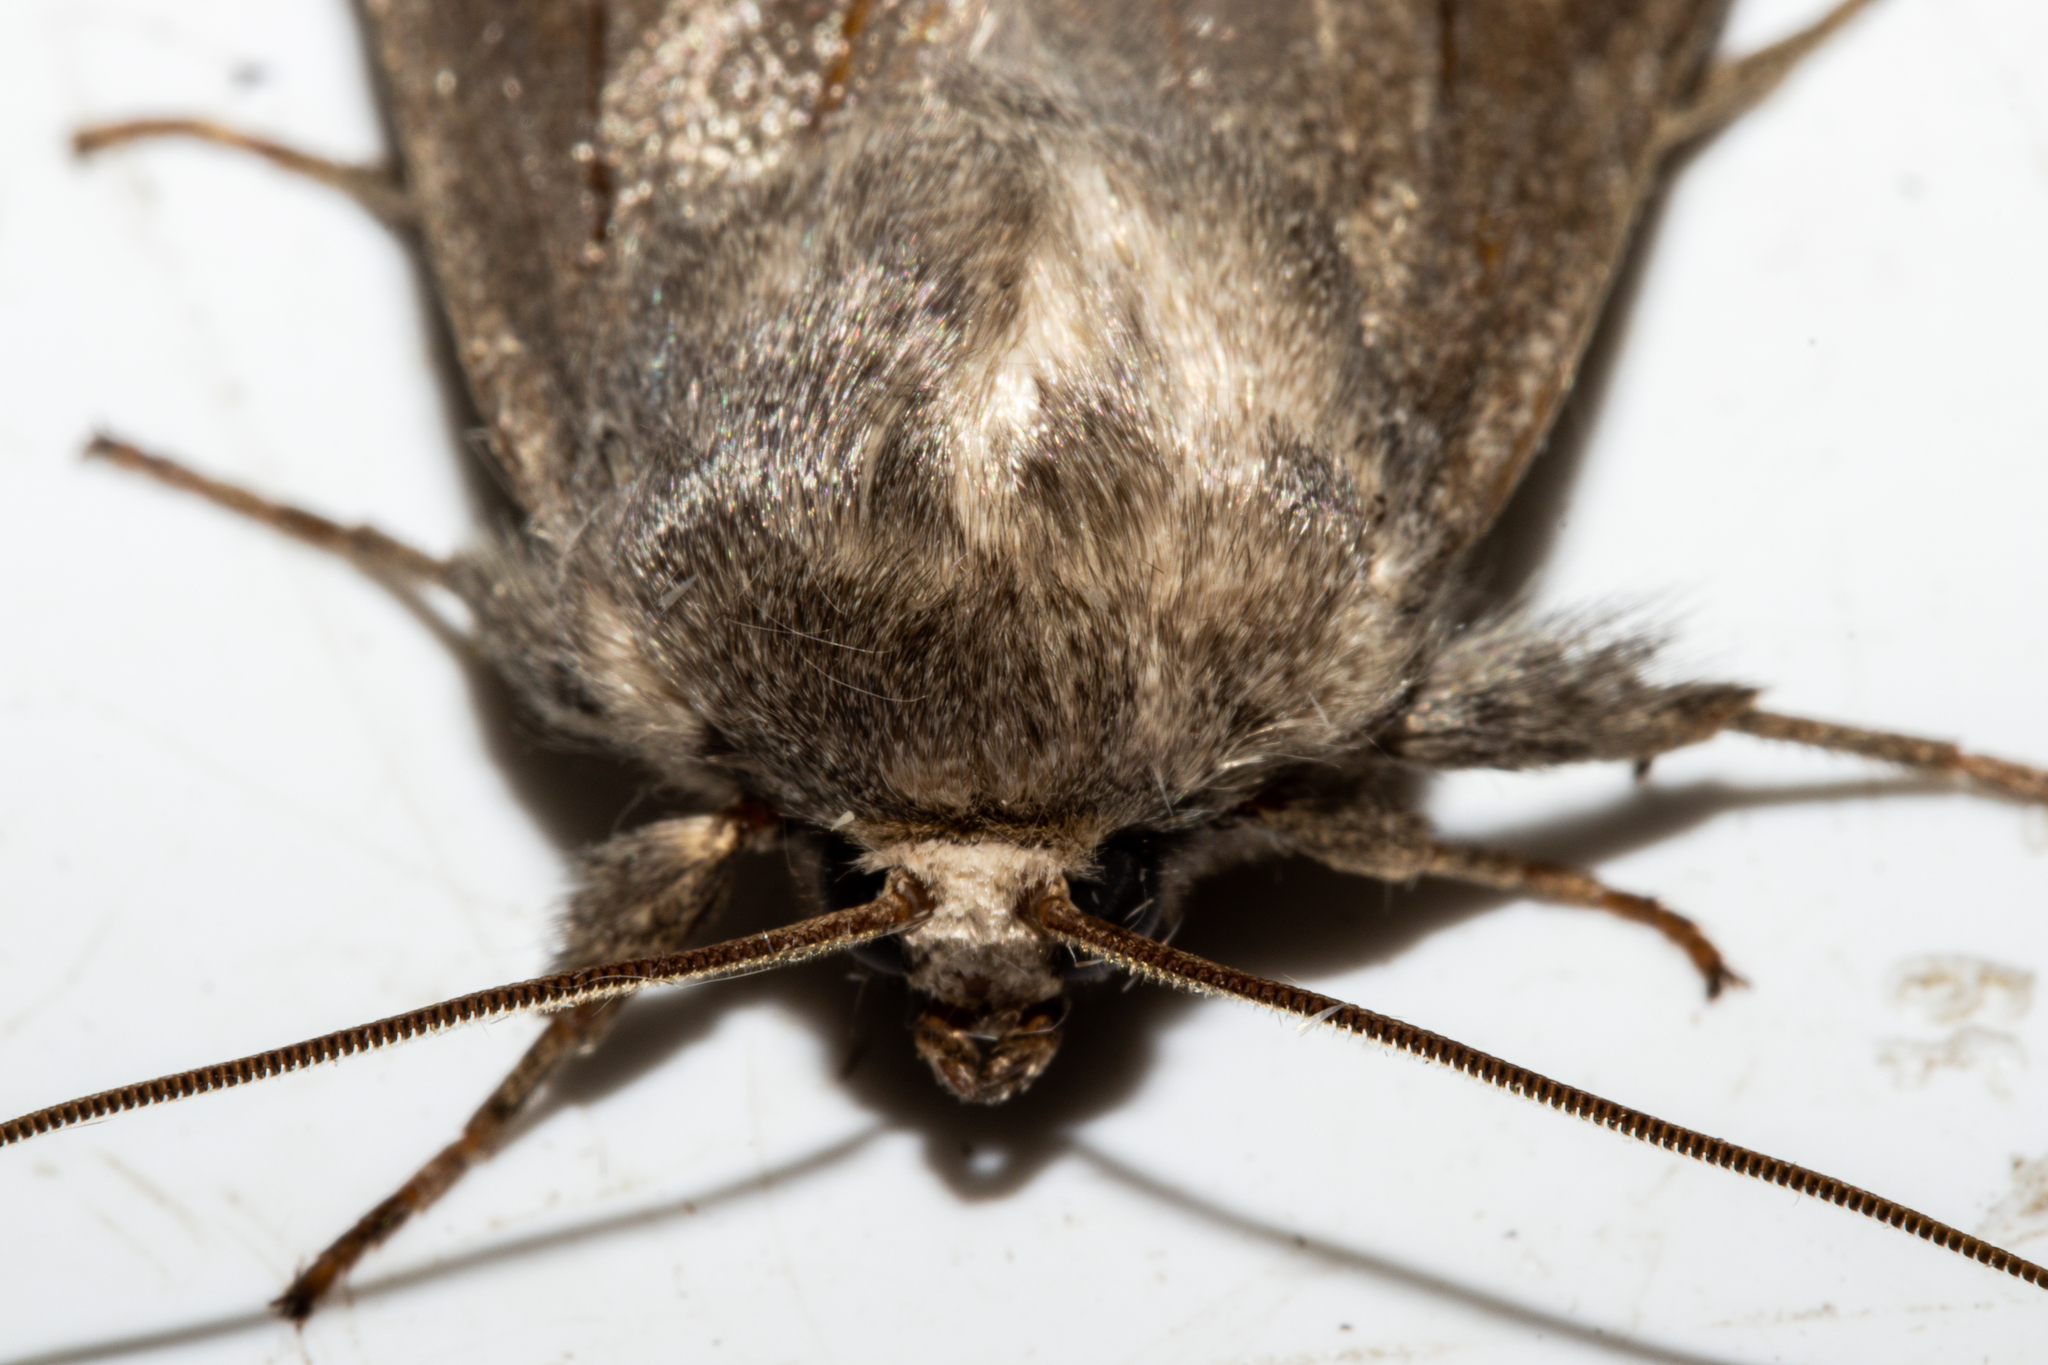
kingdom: Animalia
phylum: Arthropoda
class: Insecta
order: Lepidoptera
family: Noctuidae
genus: Ichneutica
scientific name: Ichneutica nullifera
